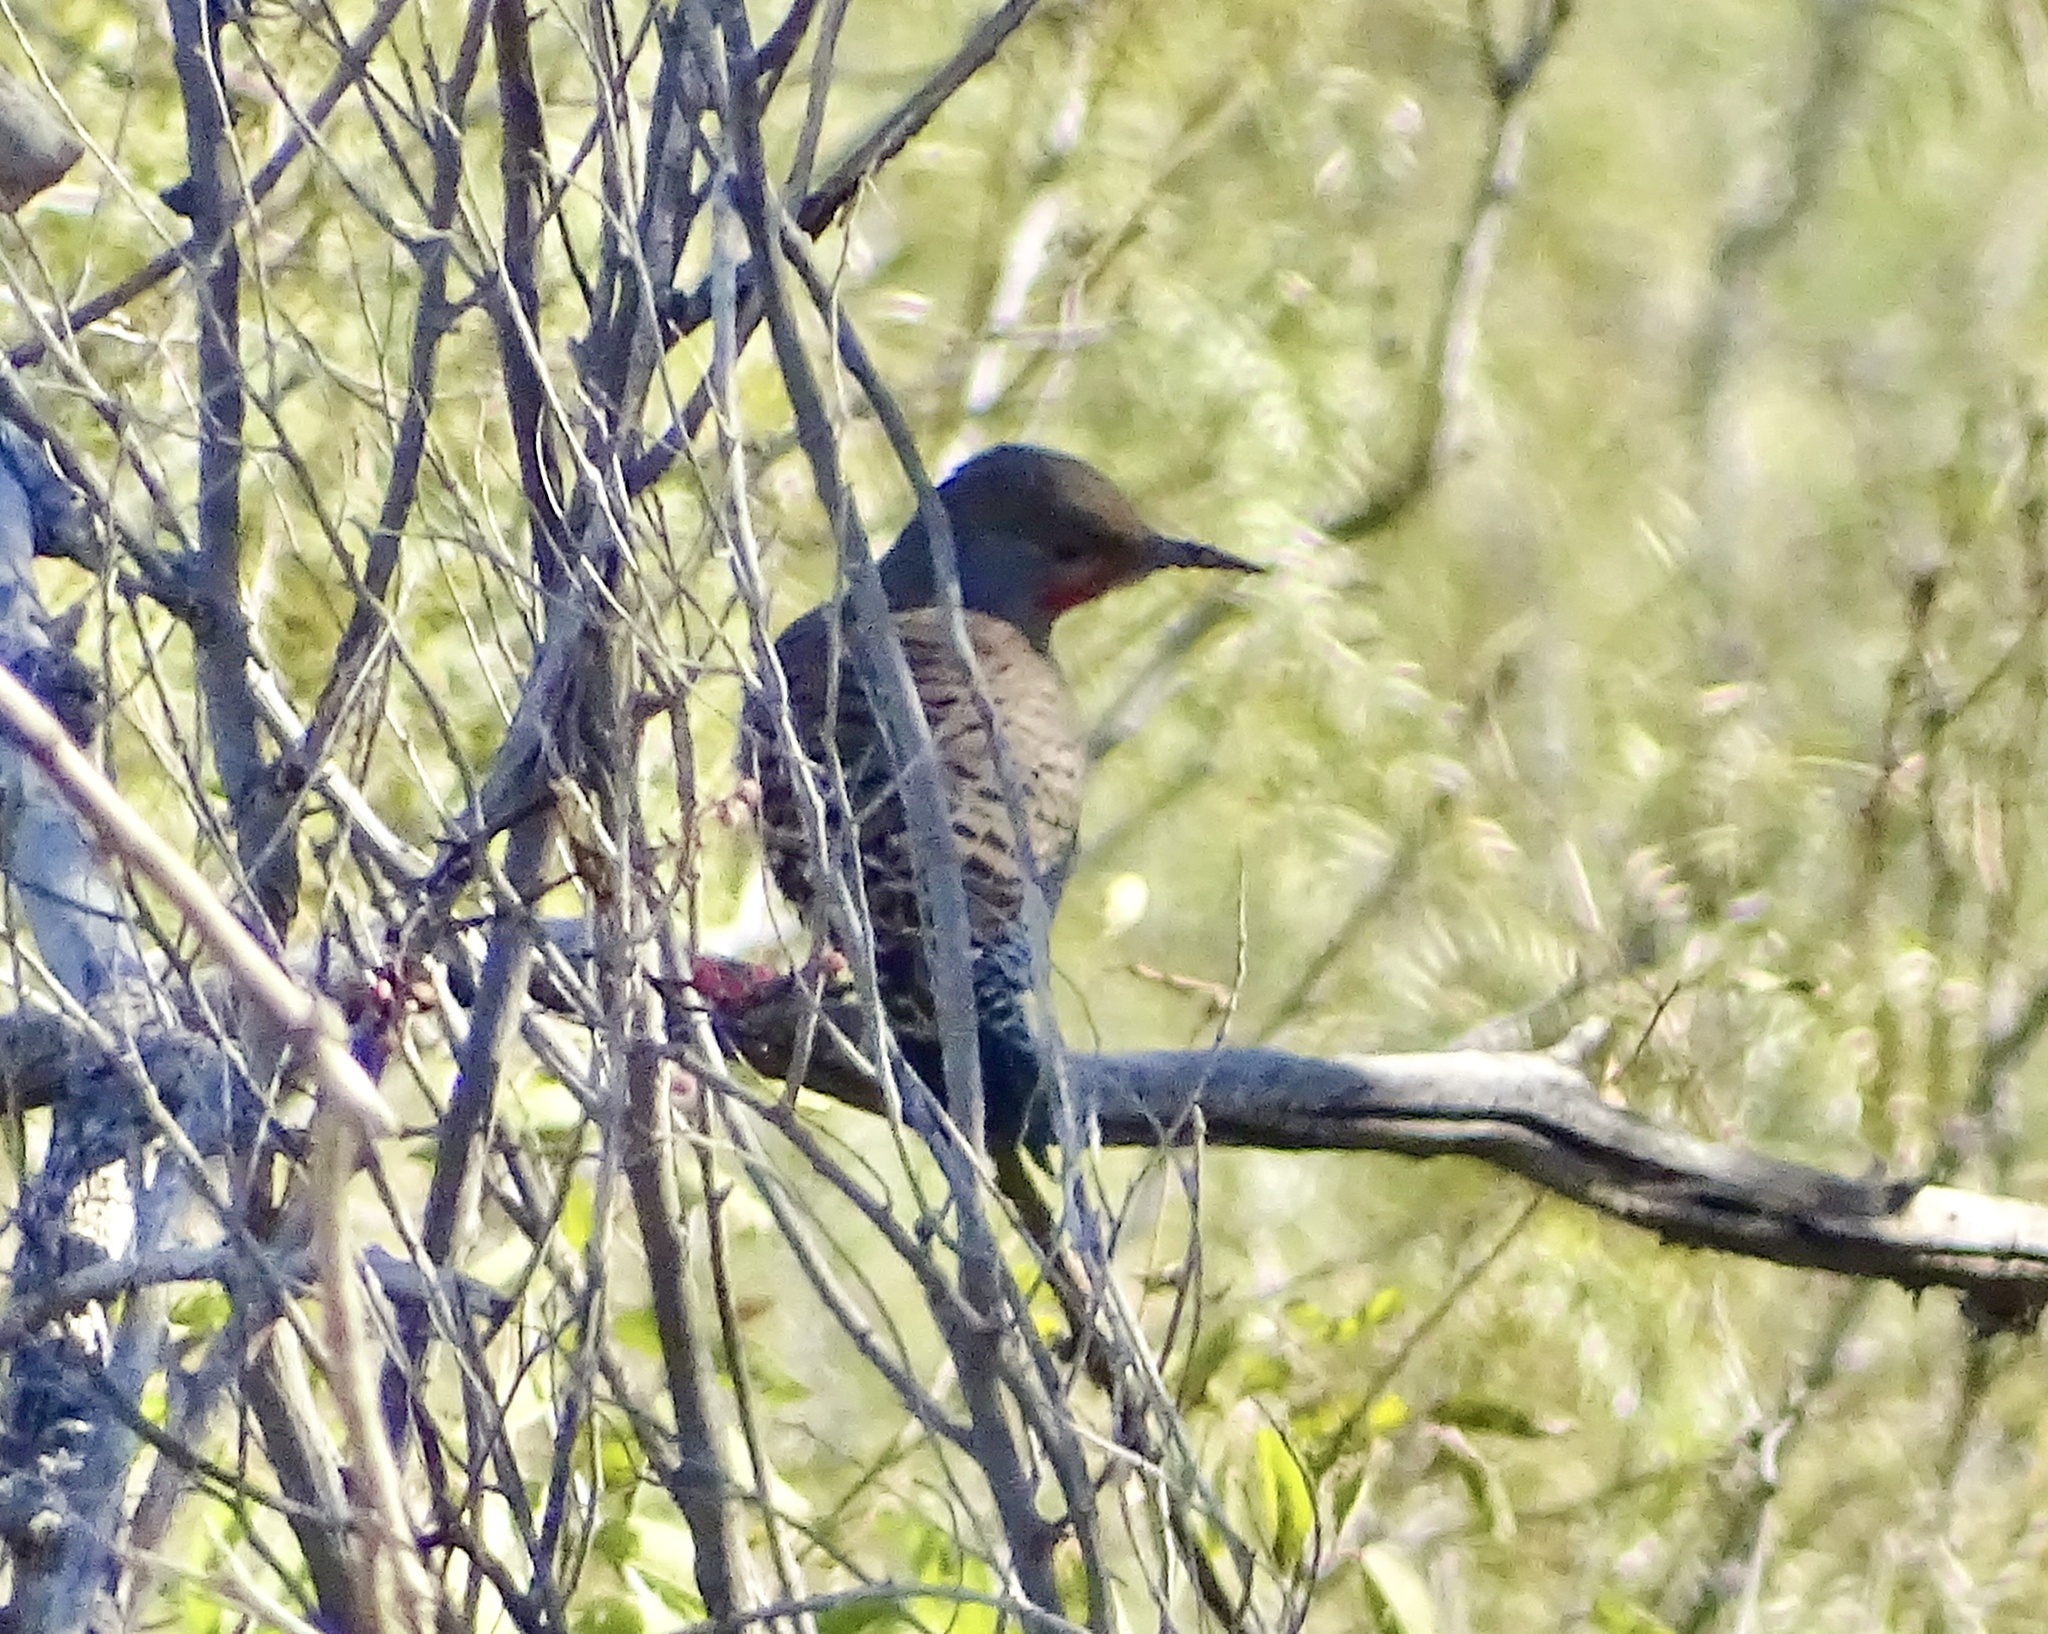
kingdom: Animalia
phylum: Chordata
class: Aves
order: Piciformes
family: Picidae
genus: Colaptes
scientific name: Colaptes auratus
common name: Northern flicker
